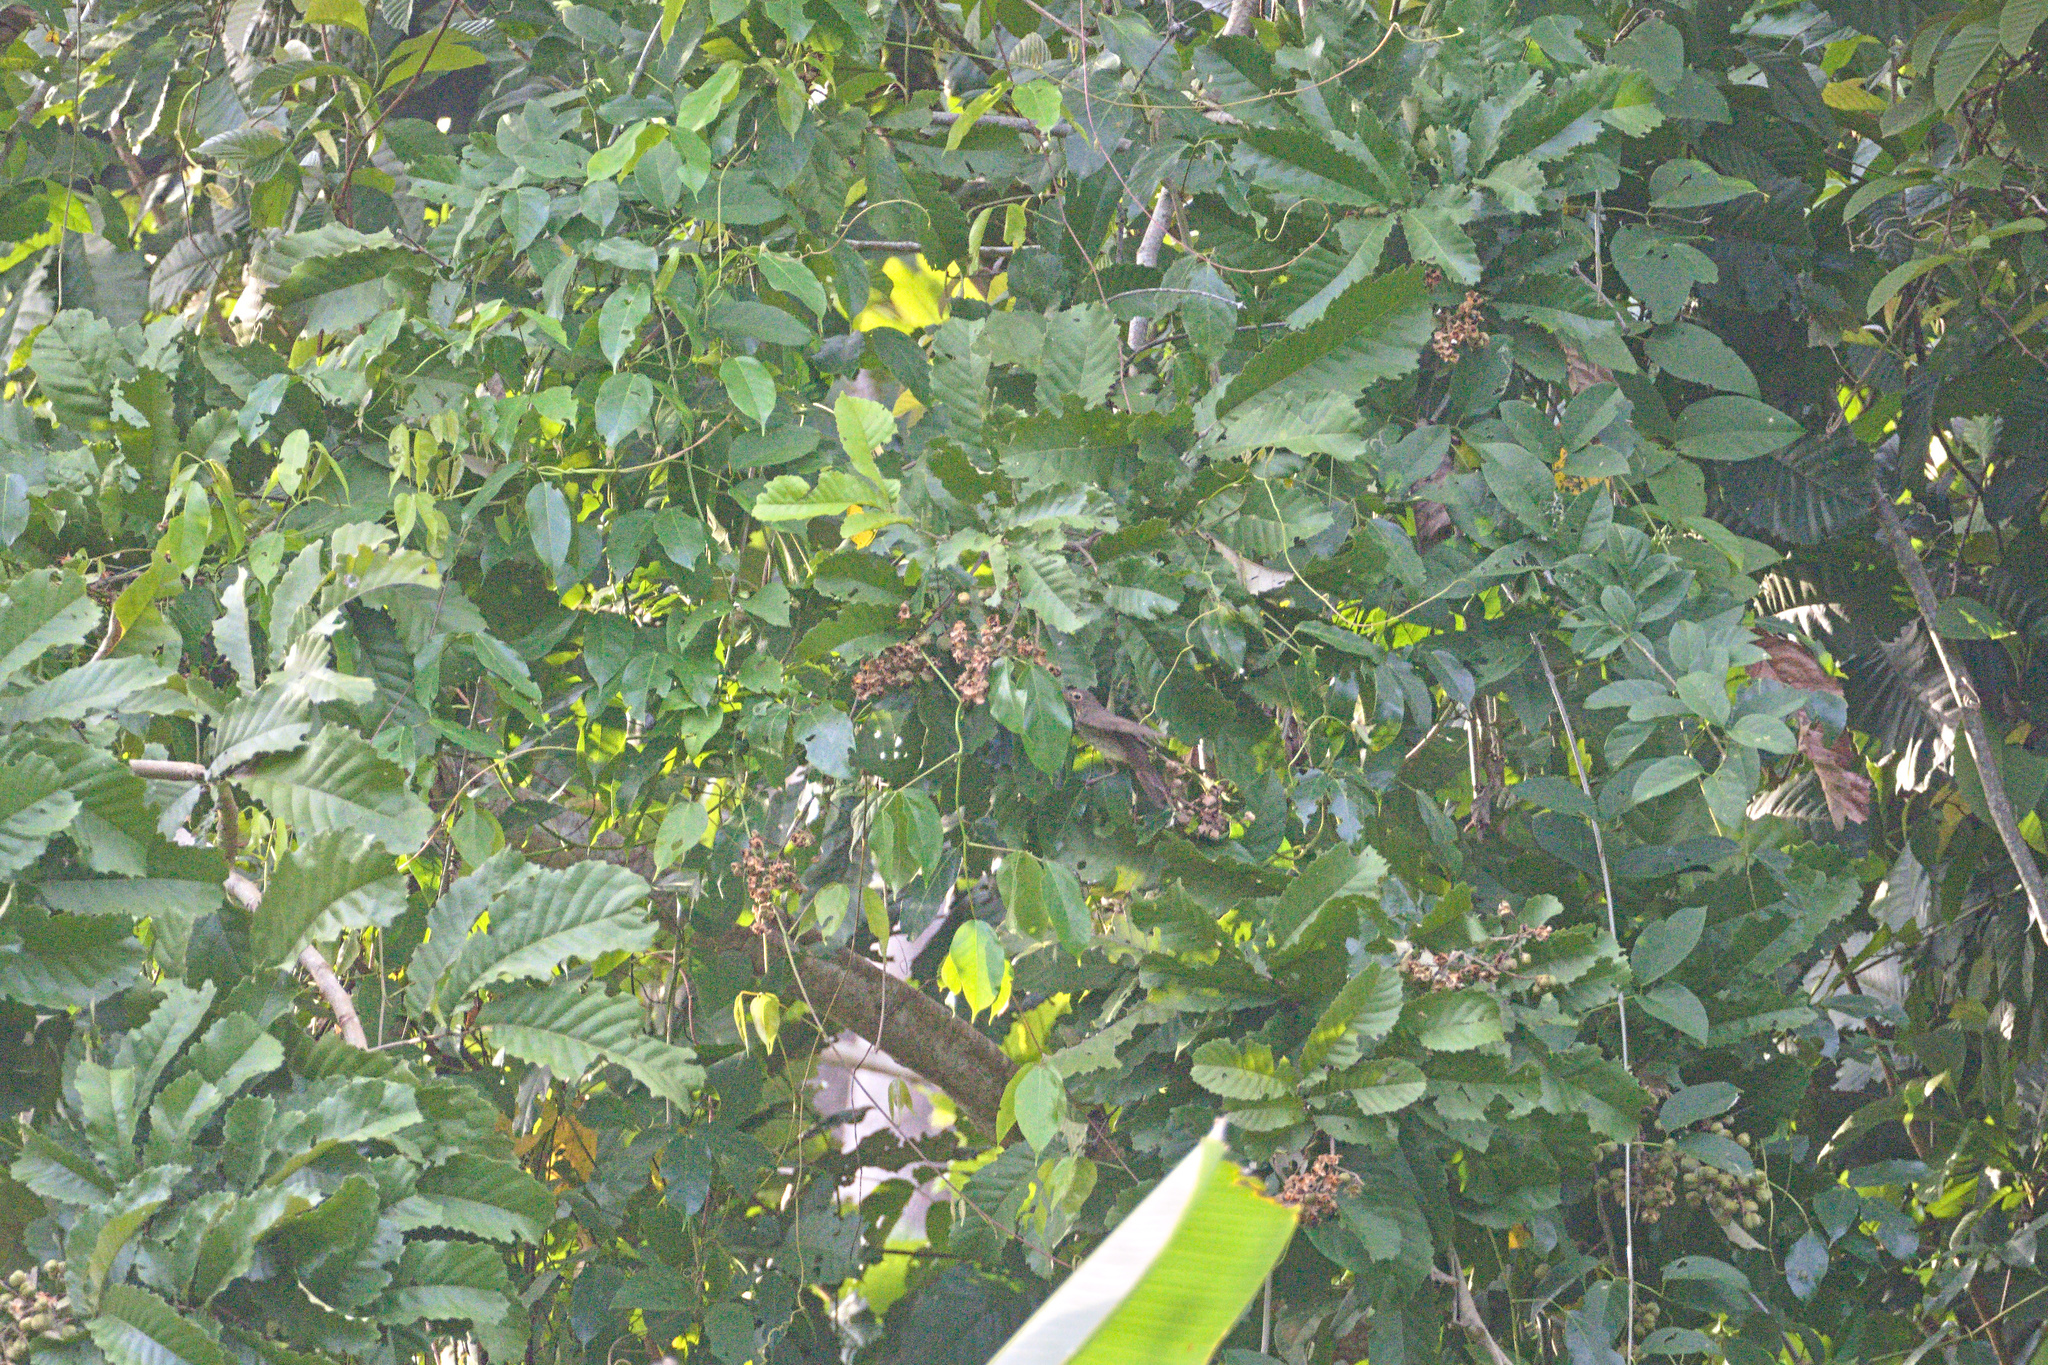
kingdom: Animalia
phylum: Chordata
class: Aves
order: Passeriformes
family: Turdidae
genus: Catharus
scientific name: Catharus ustulatus
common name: Swainson's thrush
